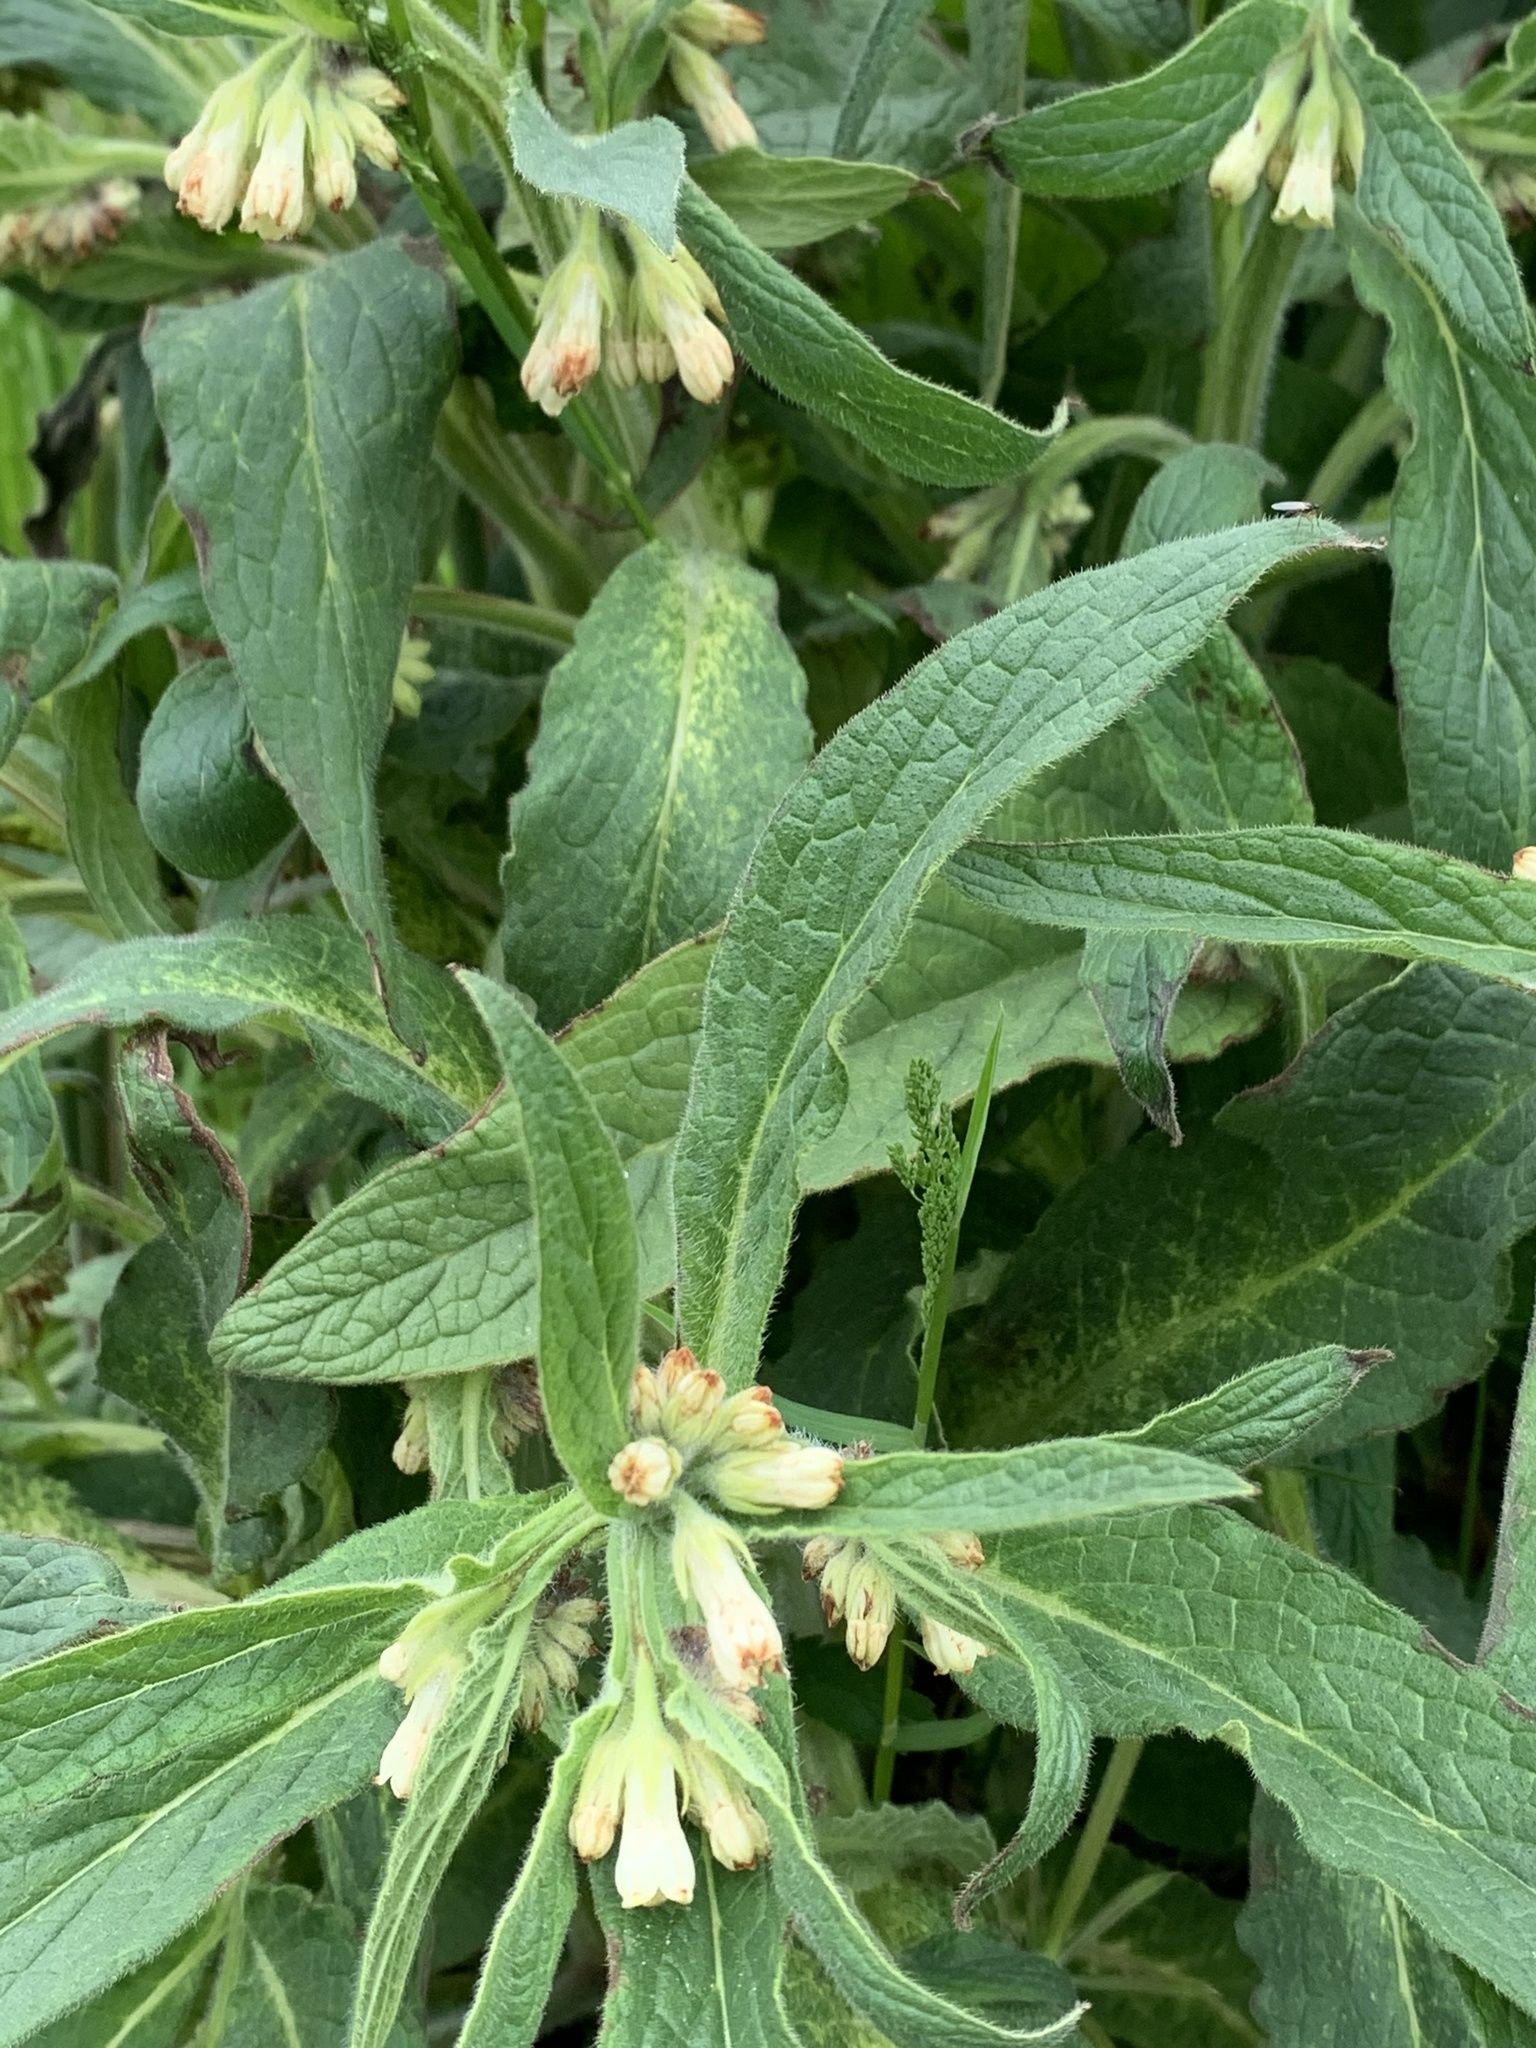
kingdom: Plantae
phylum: Tracheophyta
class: Magnoliopsida
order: Boraginales
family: Boraginaceae
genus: Symphytum
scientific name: Symphytum officinale
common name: Common comfrey
